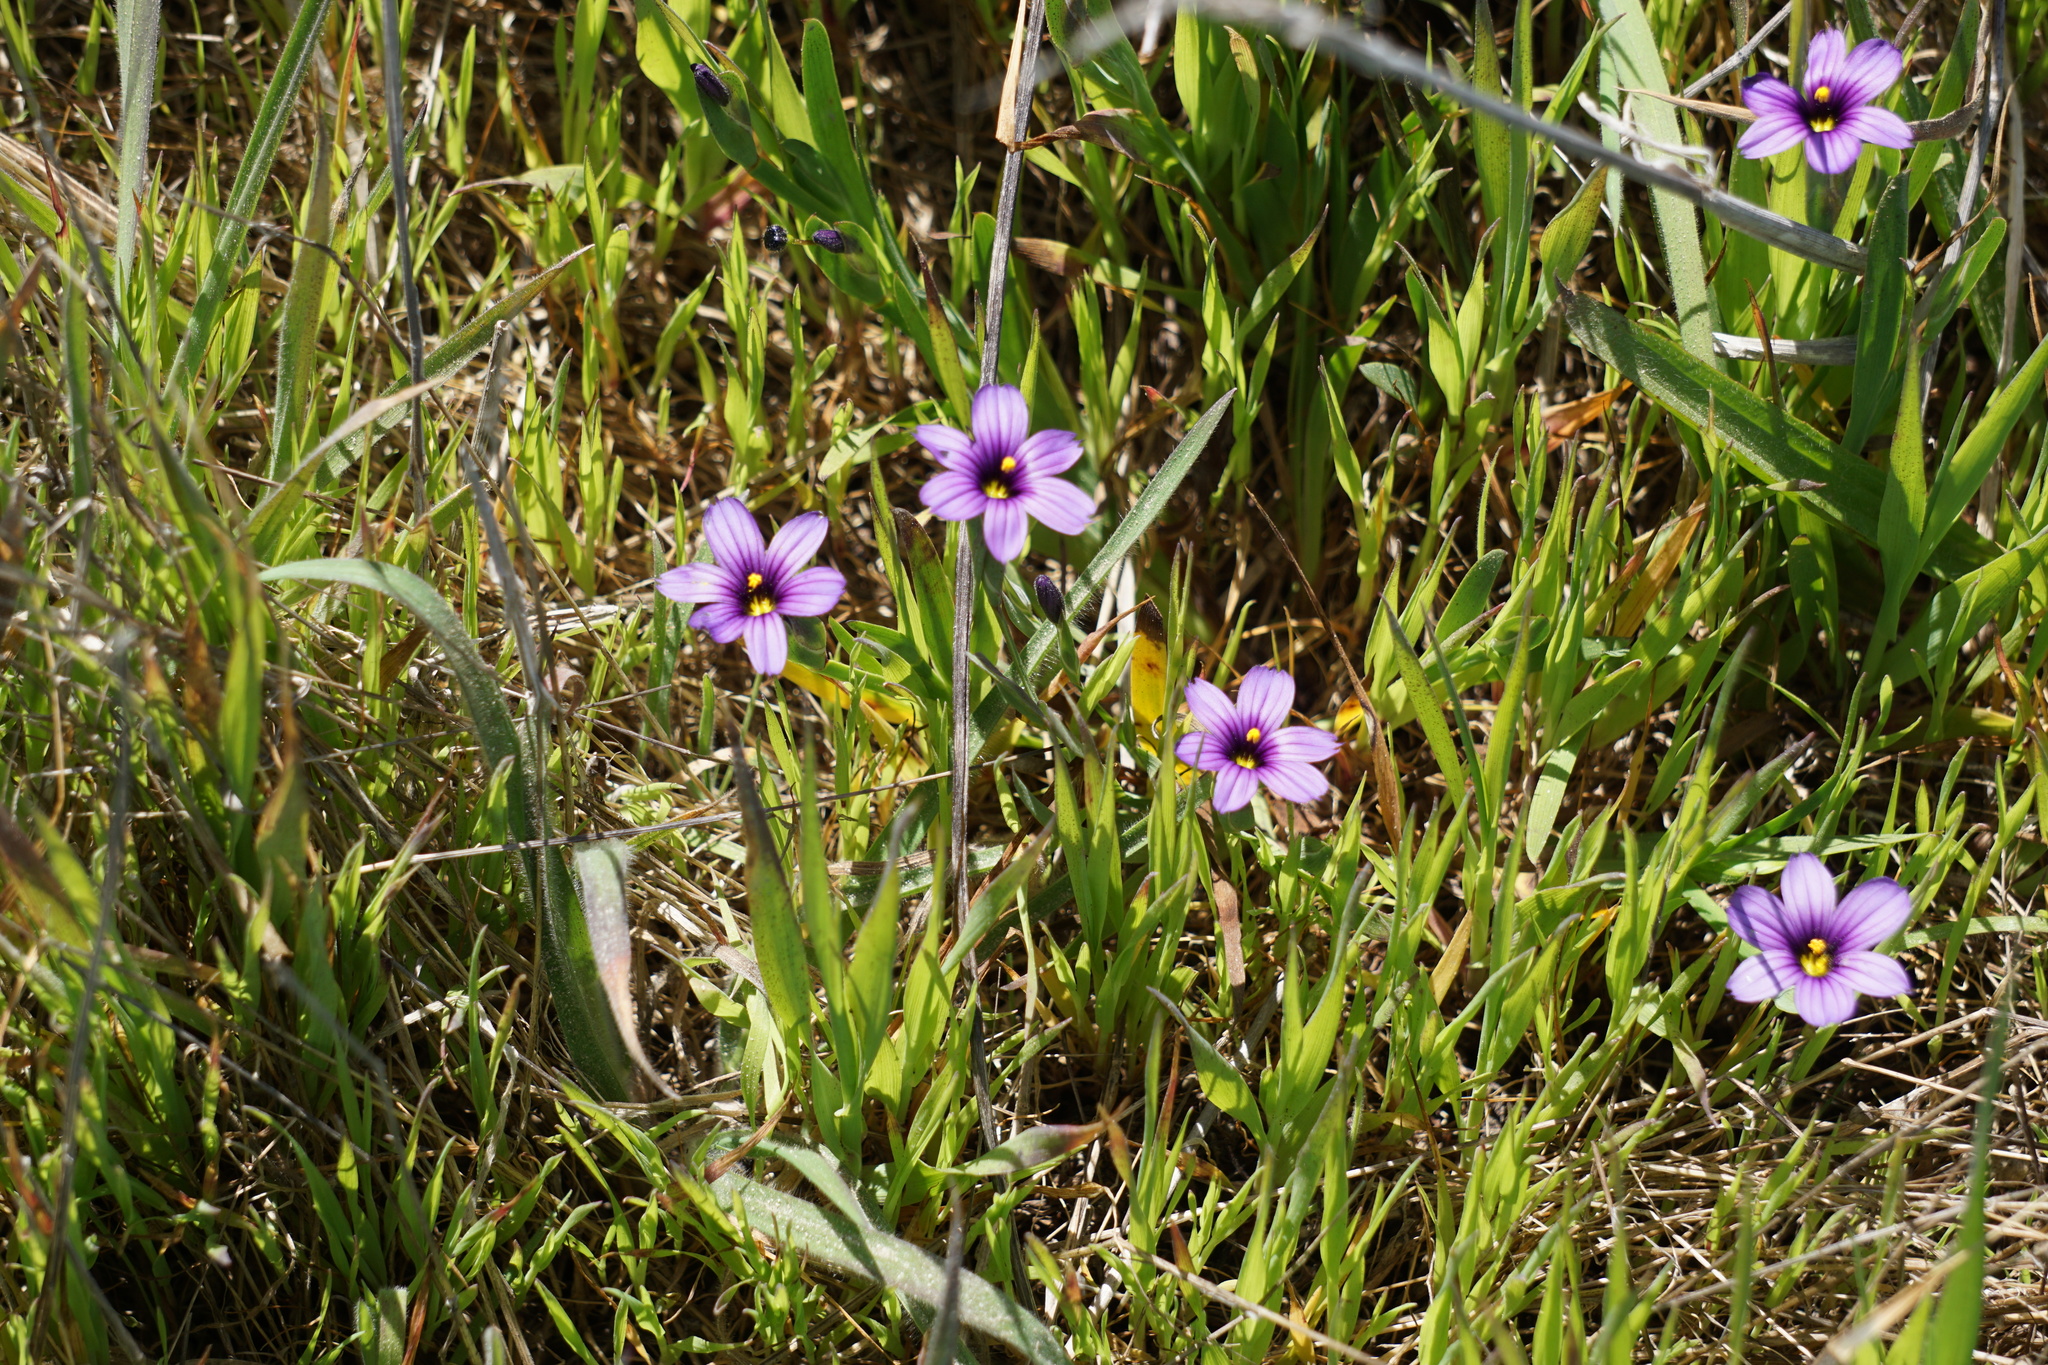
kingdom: Plantae
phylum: Tracheophyta
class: Liliopsida
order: Asparagales
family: Iridaceae
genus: Sisyrinchium
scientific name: Sisyrinchium bellum
